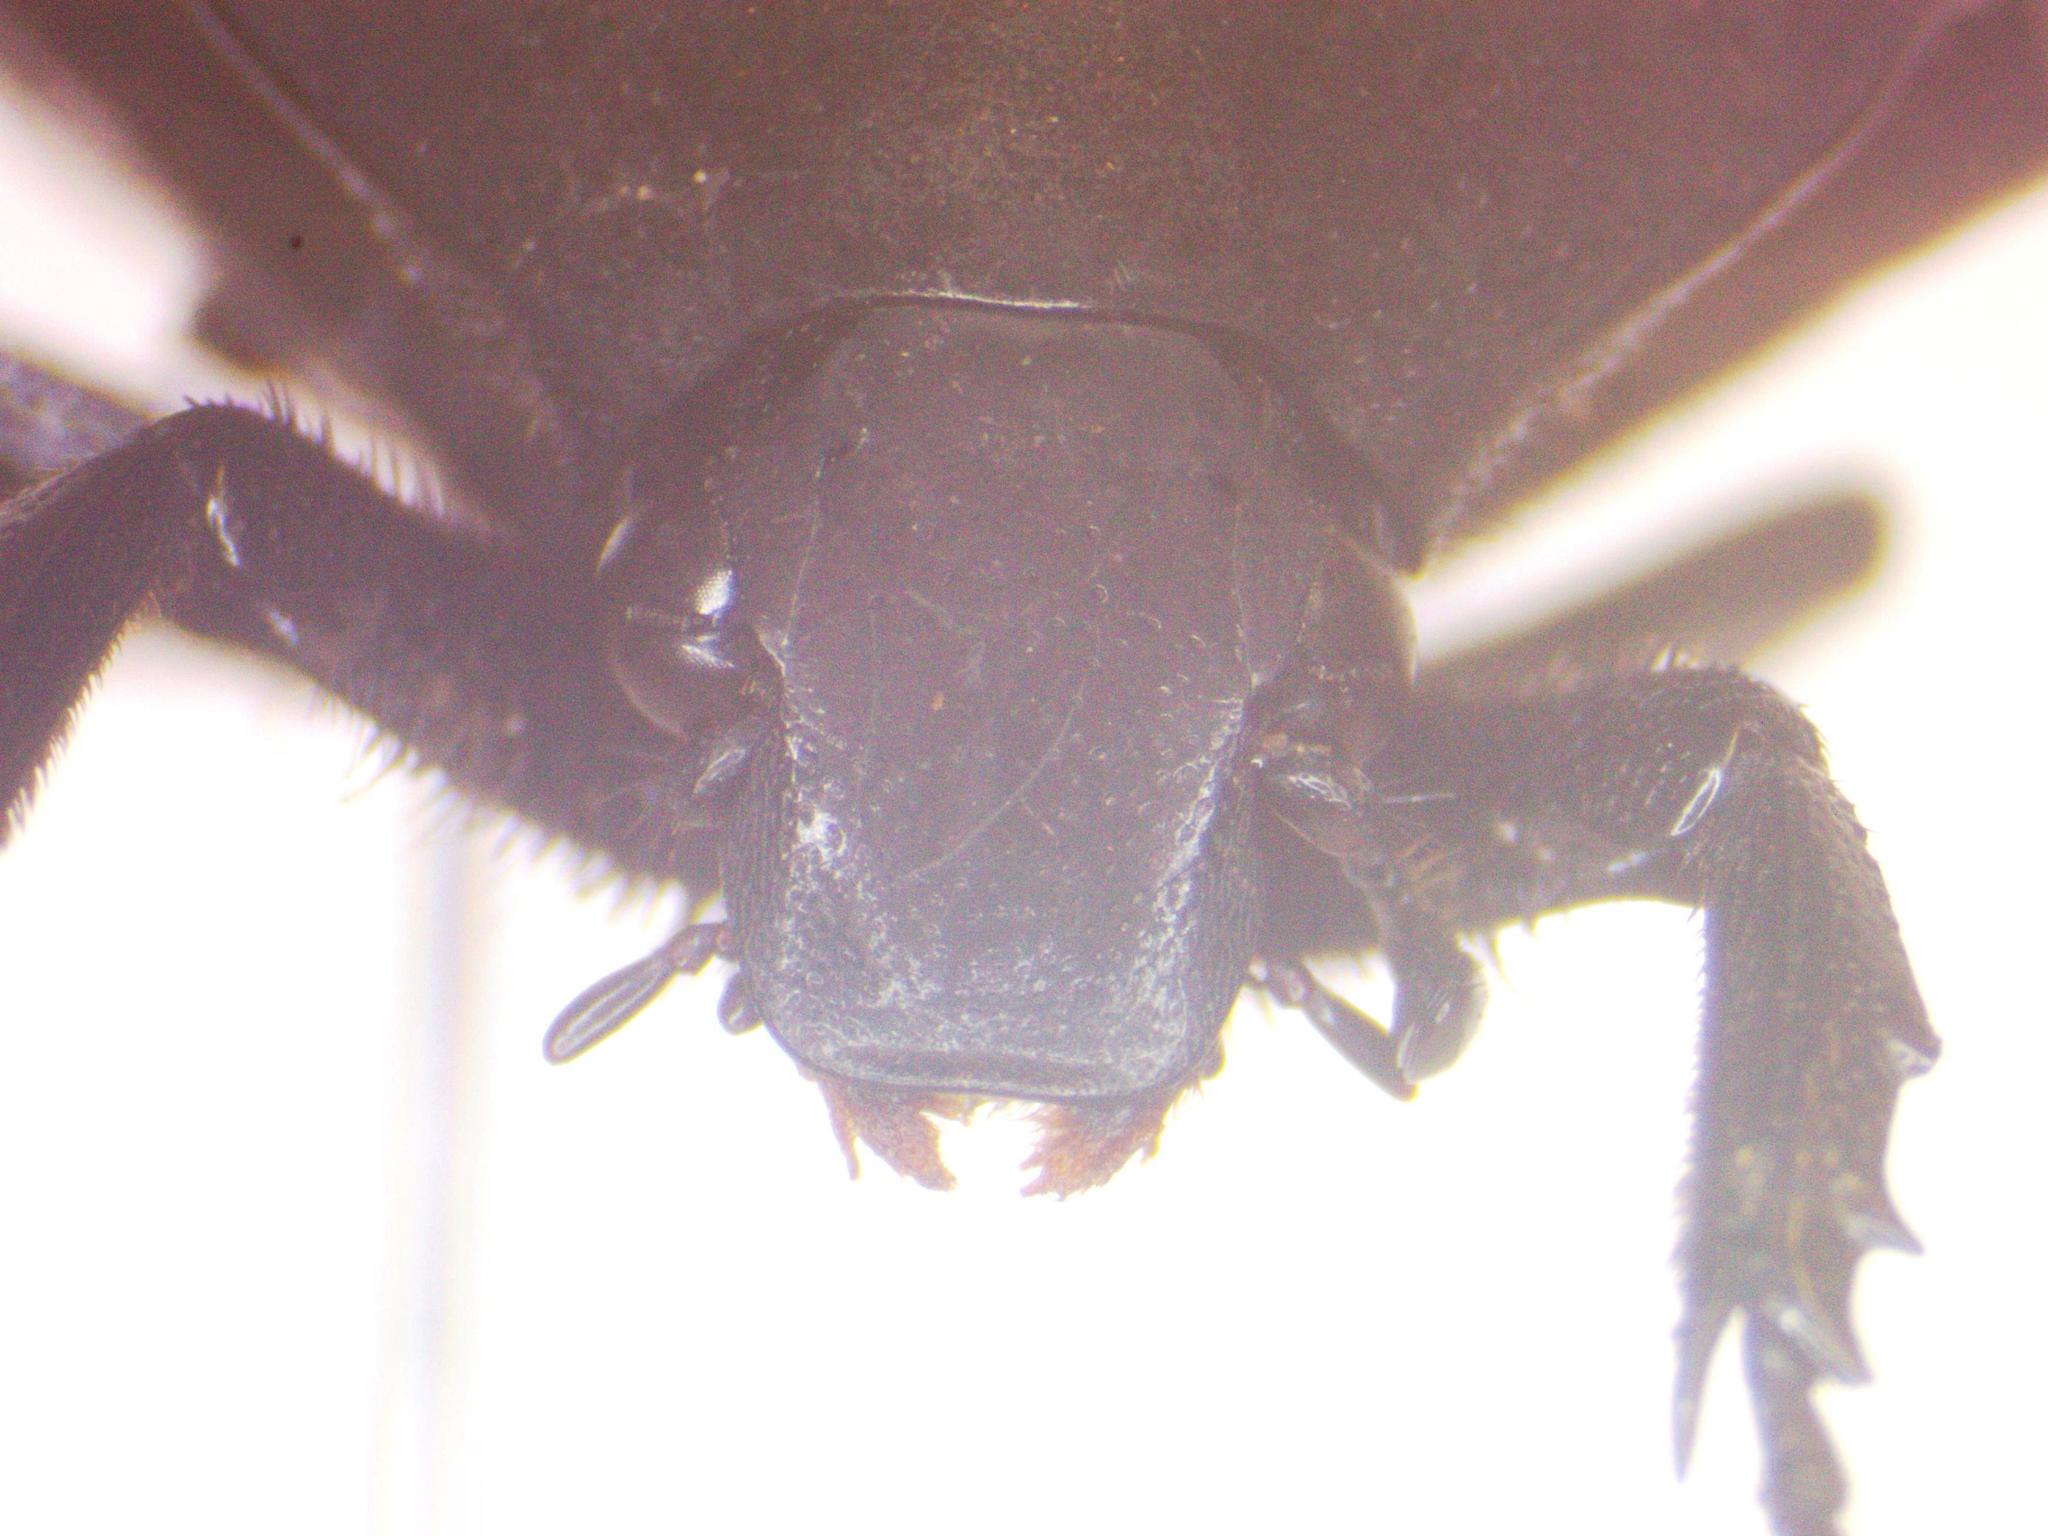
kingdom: Animalia
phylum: Arthropoda
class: Insecta
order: Coleoptera
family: Scarabaeidae
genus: Gymnetis
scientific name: Gymnetis ramulosa
